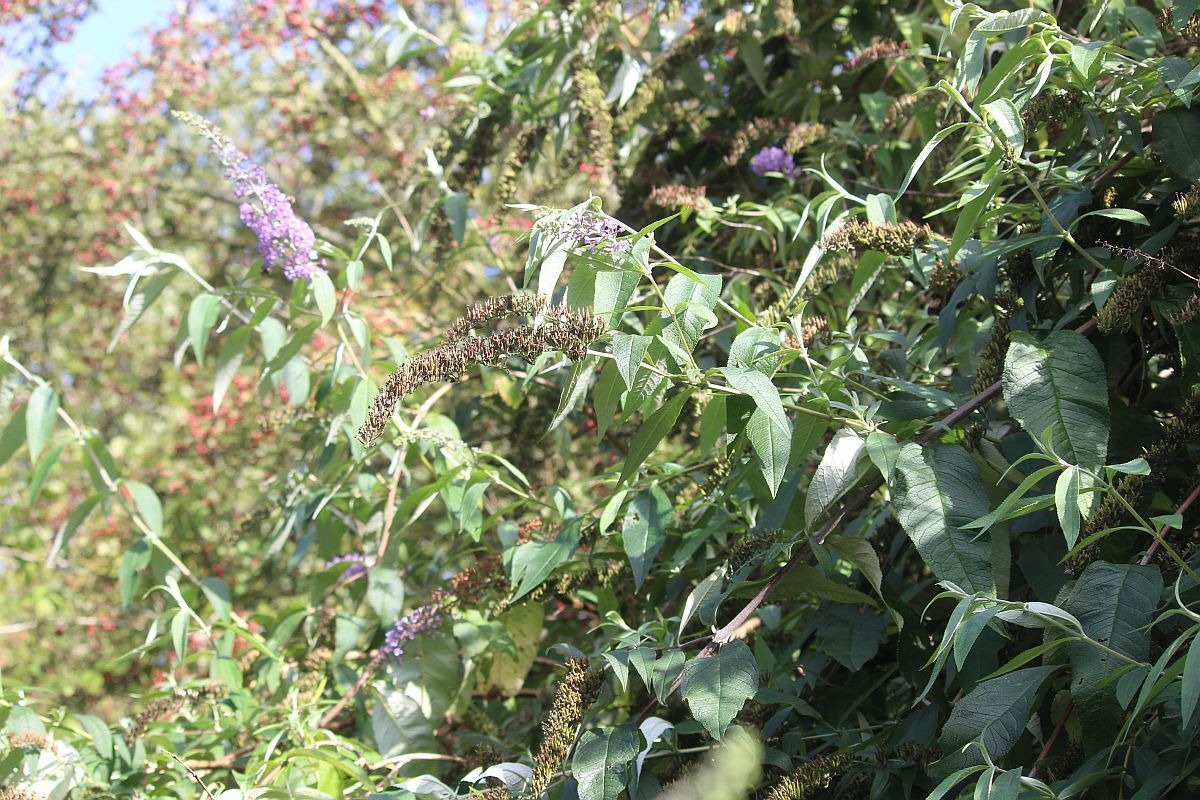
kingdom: Plantae
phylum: Tracheophyta
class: Magnoliopsida
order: Lamiales
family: Scrophulariaceae
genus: Buddleja
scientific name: Buddleja davidii
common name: Butterfly-bush
